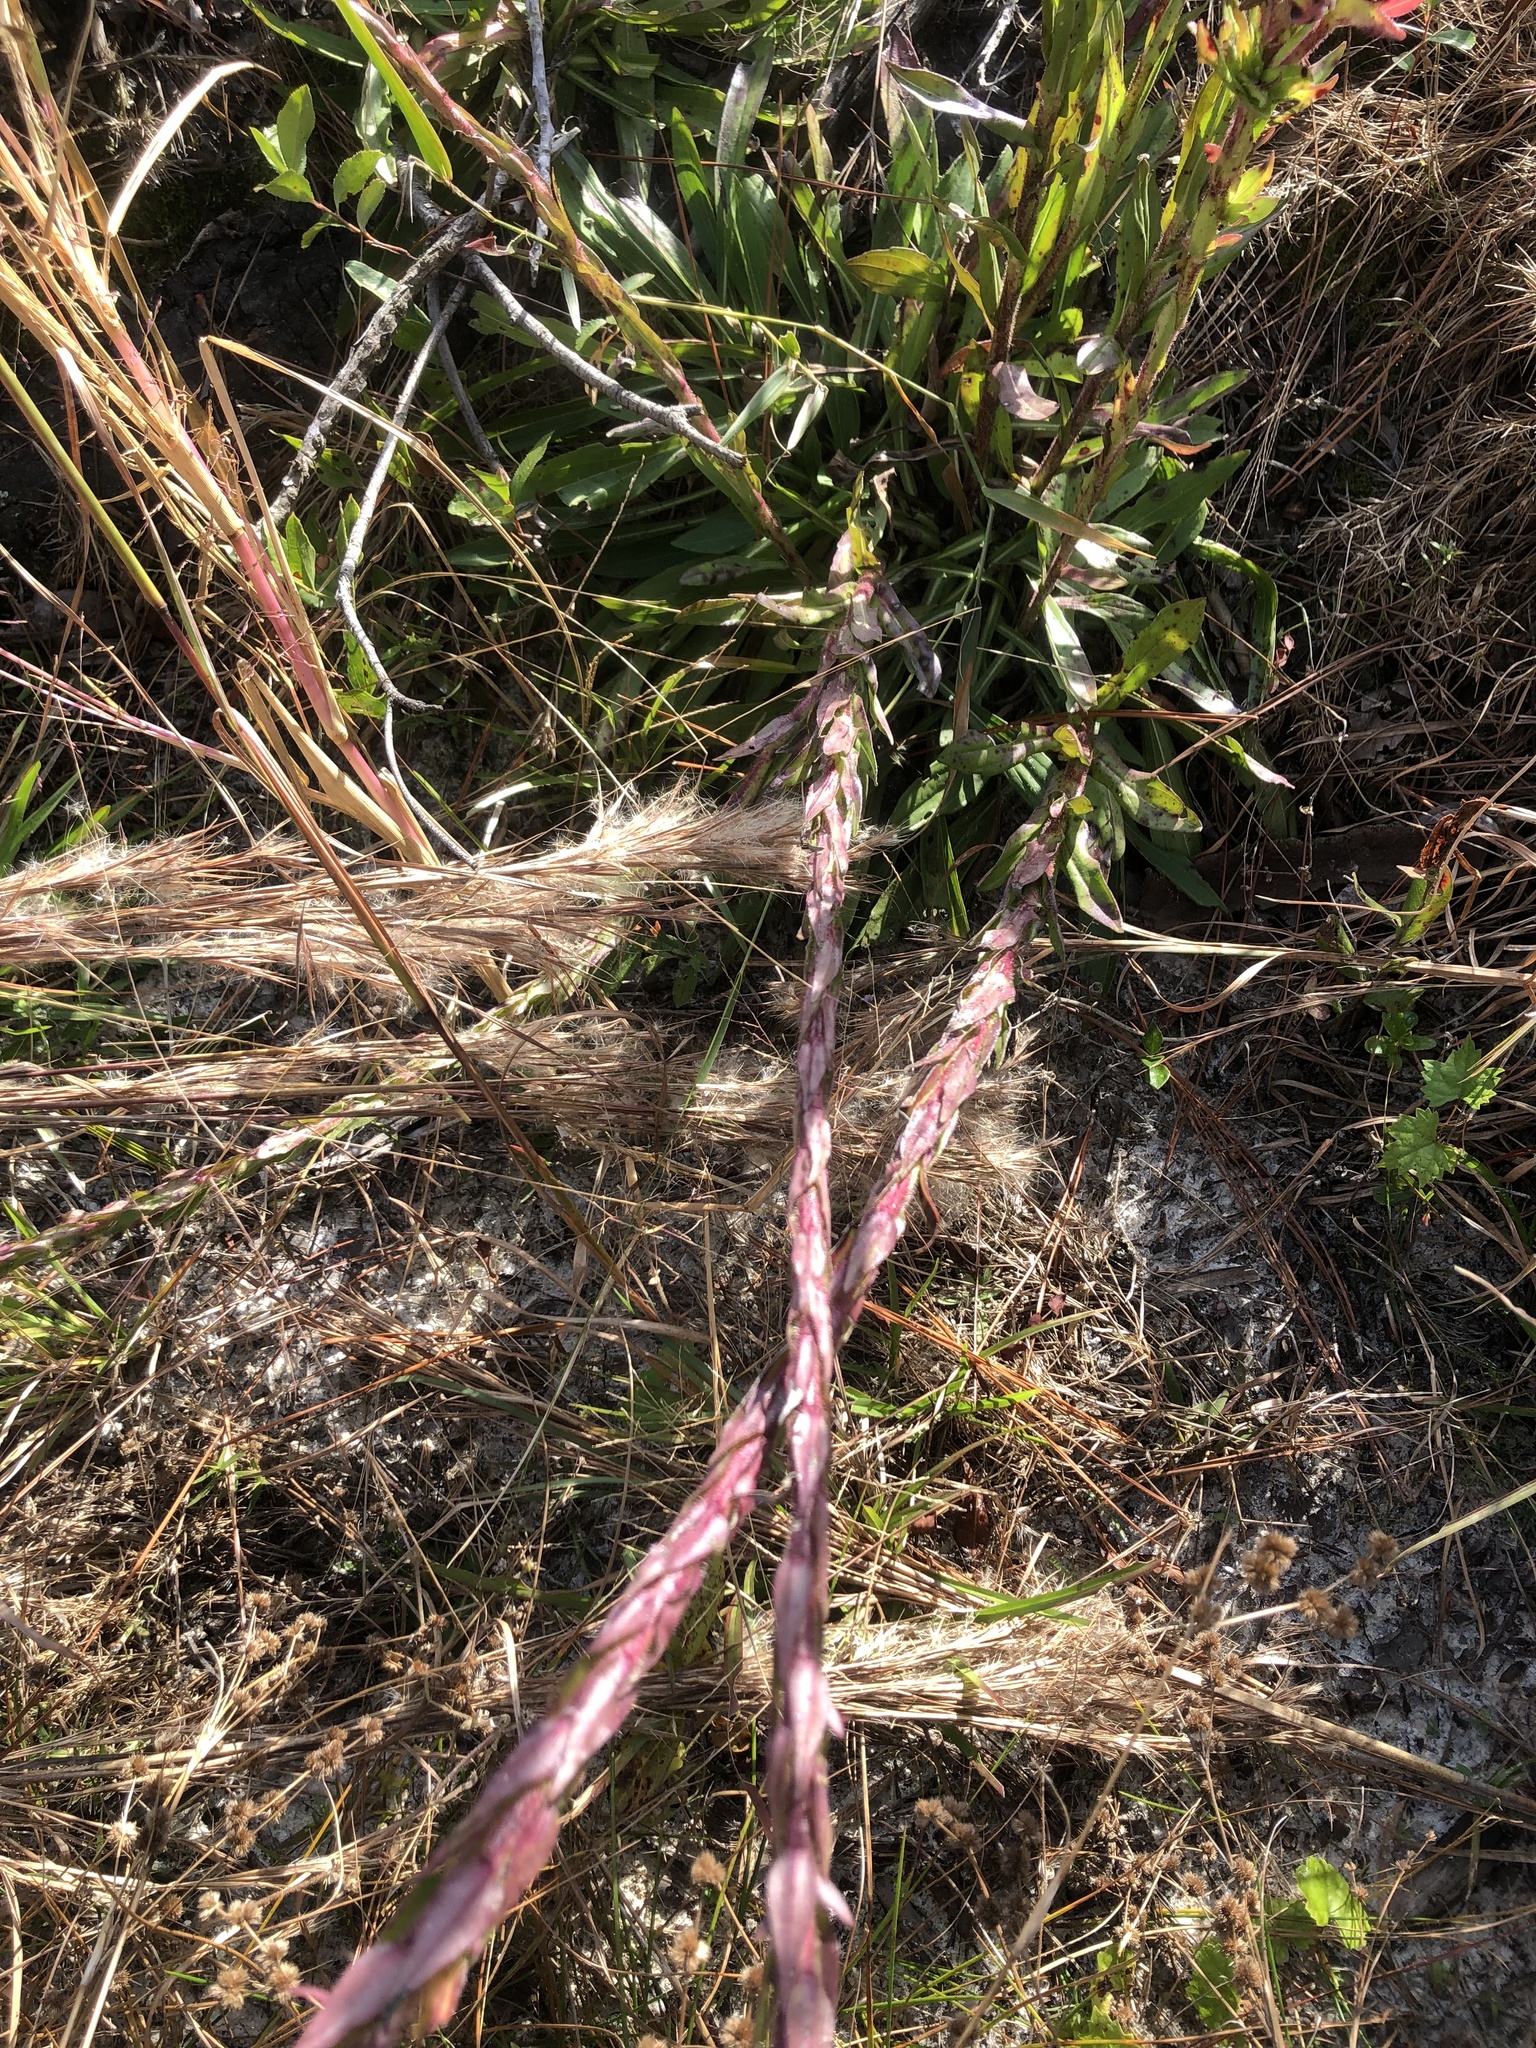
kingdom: Plantae
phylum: Tracheophyta
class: Magnoliopsida
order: Asterales
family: Asteraceae
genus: Carphephorus
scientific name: Carphephorus paniculatus
